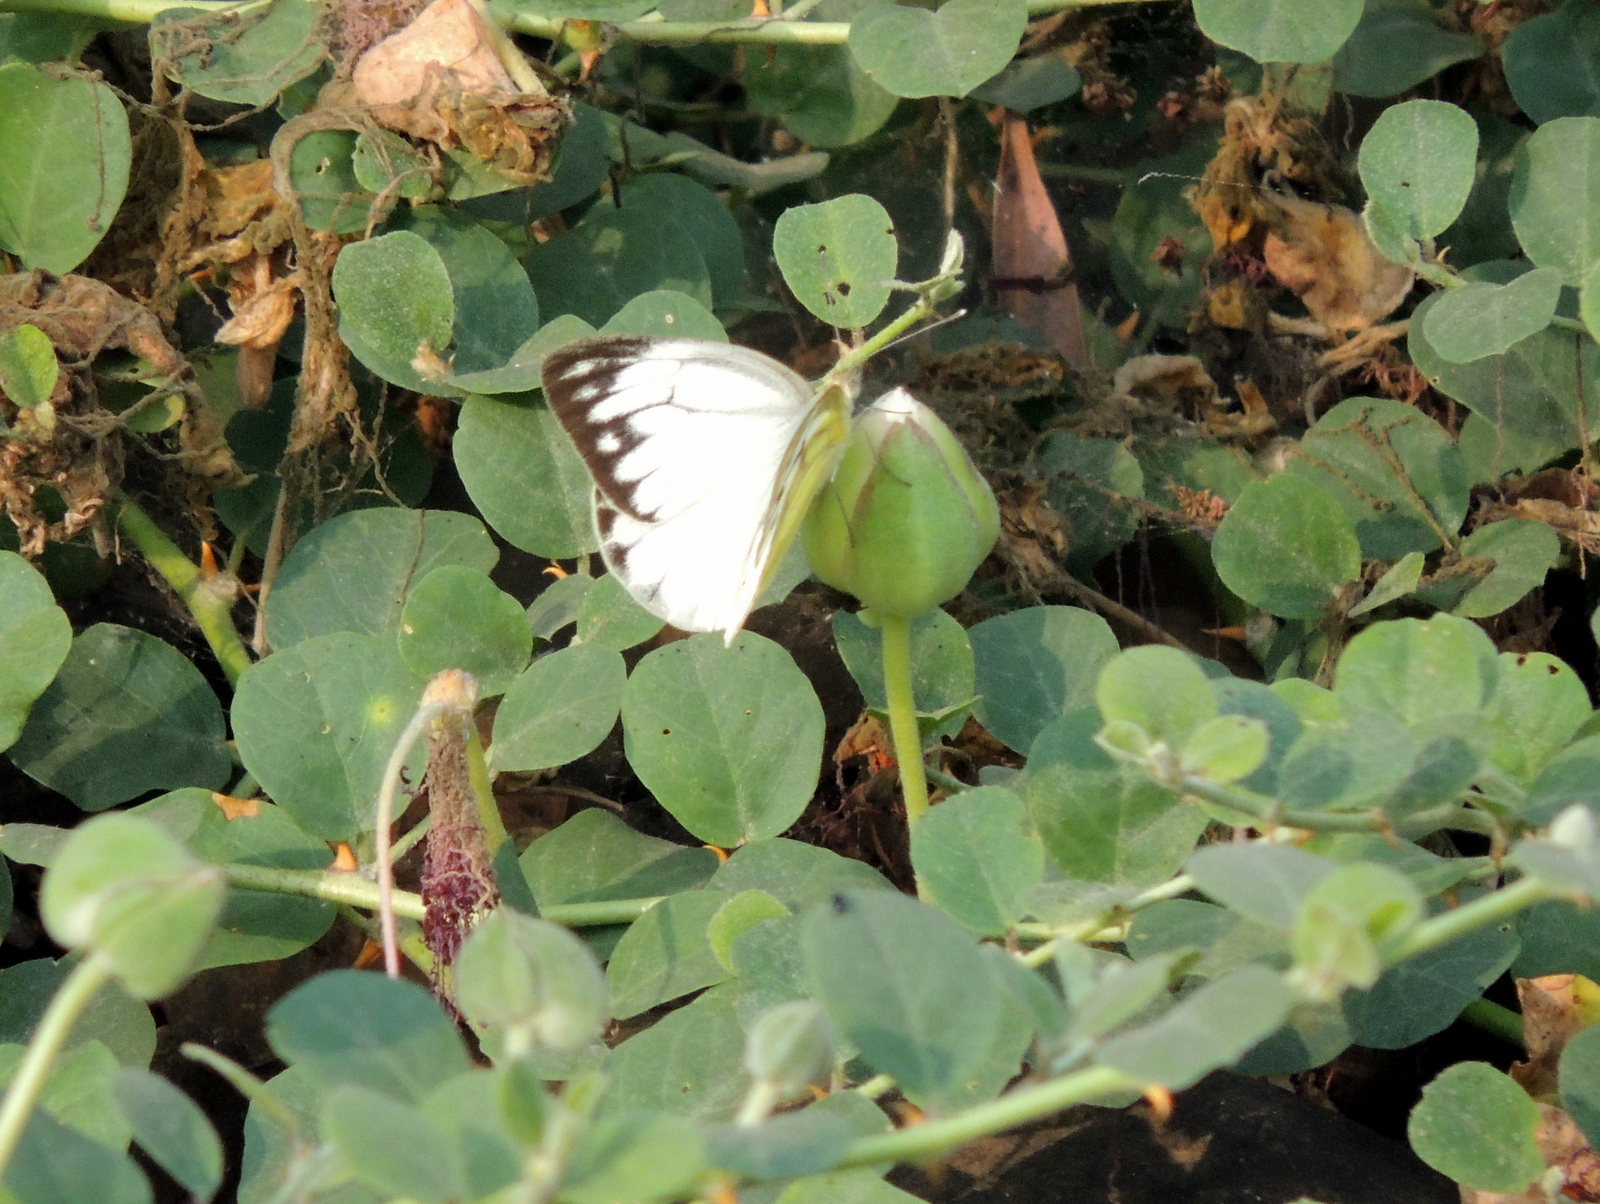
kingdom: Animalia
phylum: Arthropoda
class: Insecta
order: Lepidoptera
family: Pieridae
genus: Cepora
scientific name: Cepora nerissa
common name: Common gull
